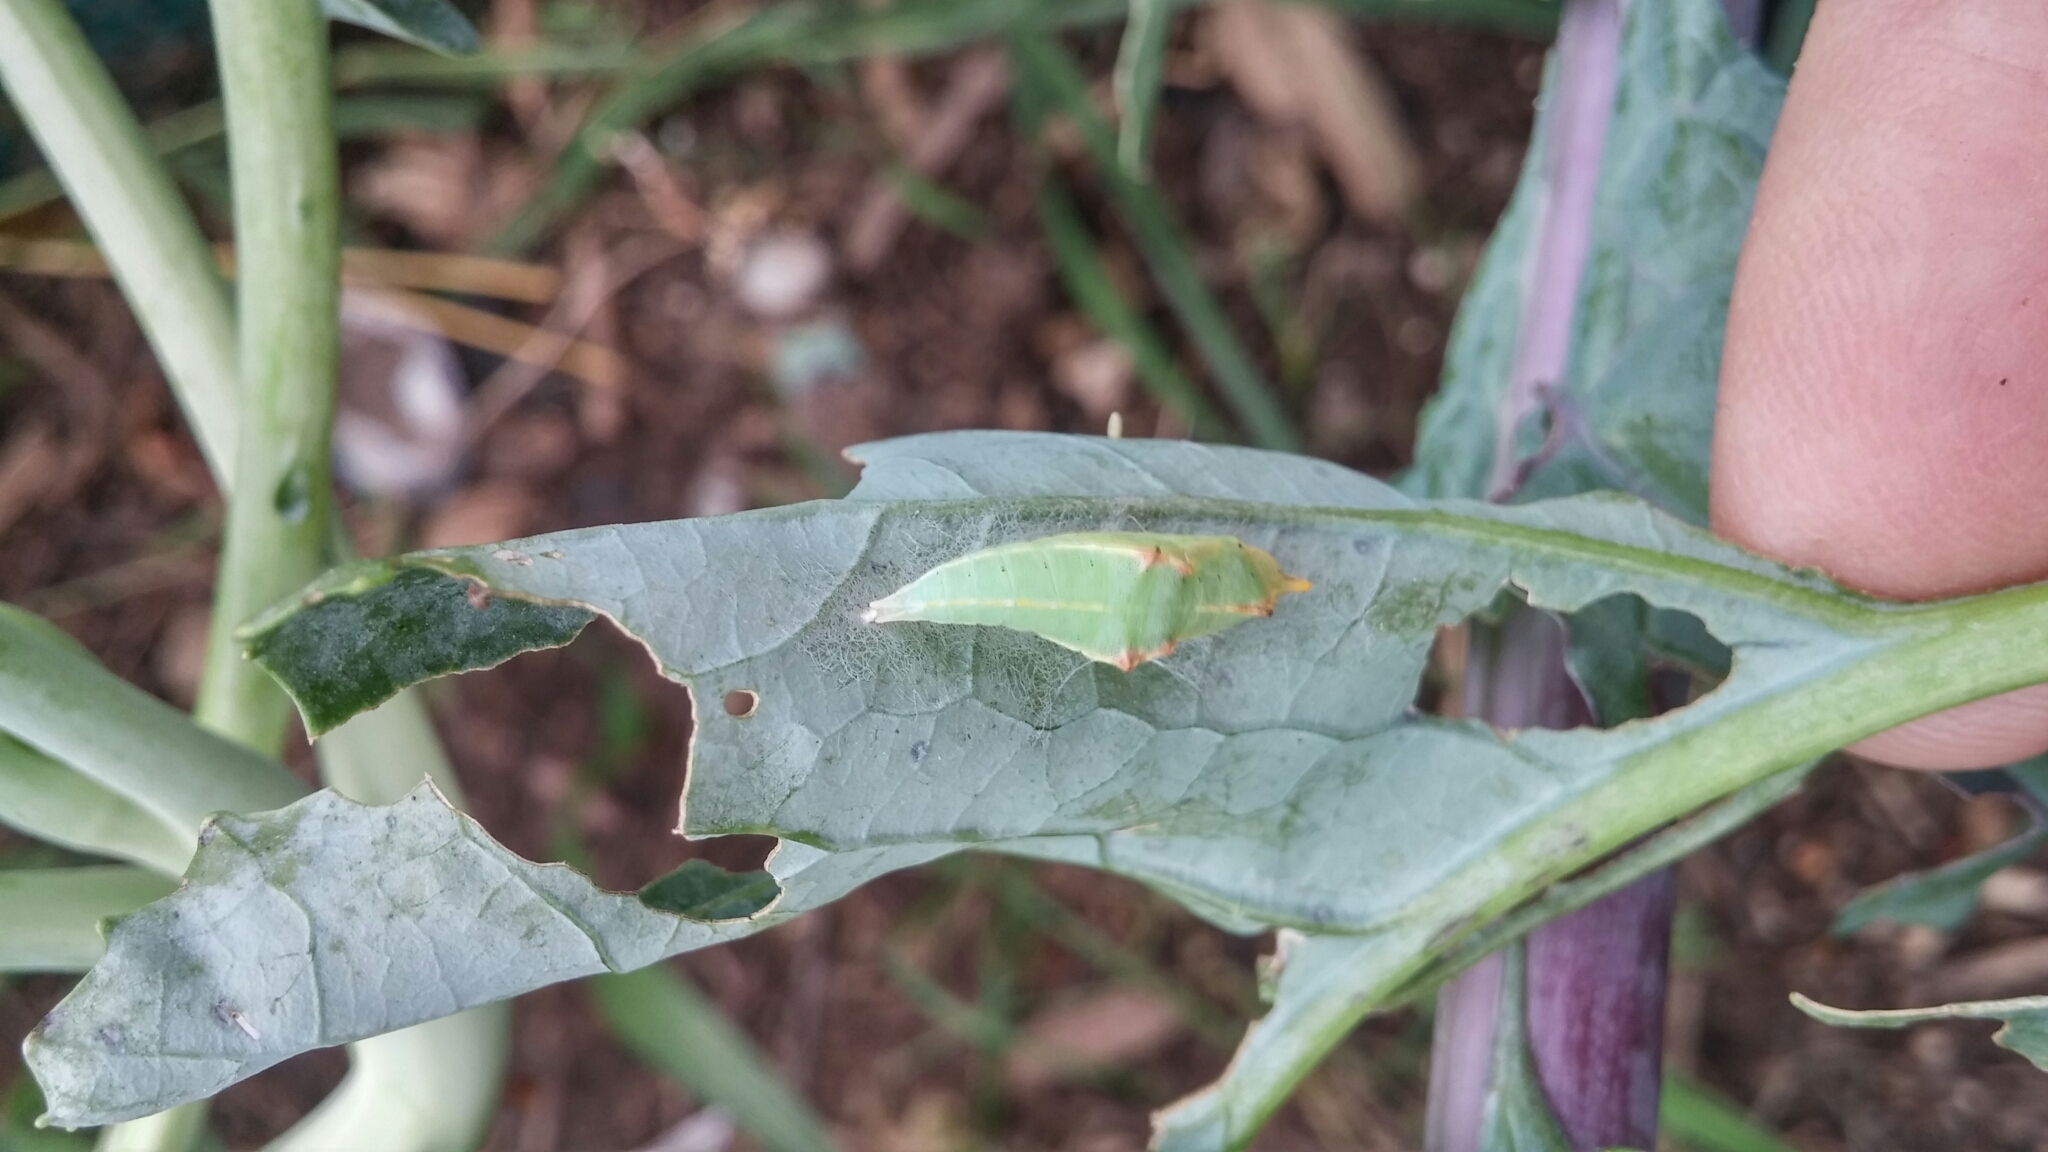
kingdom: Animalia
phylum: Arthropoda
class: Insecta
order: Lepidoptera
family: Pieridae
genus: Pieris
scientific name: Pieris rapae
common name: Small white
